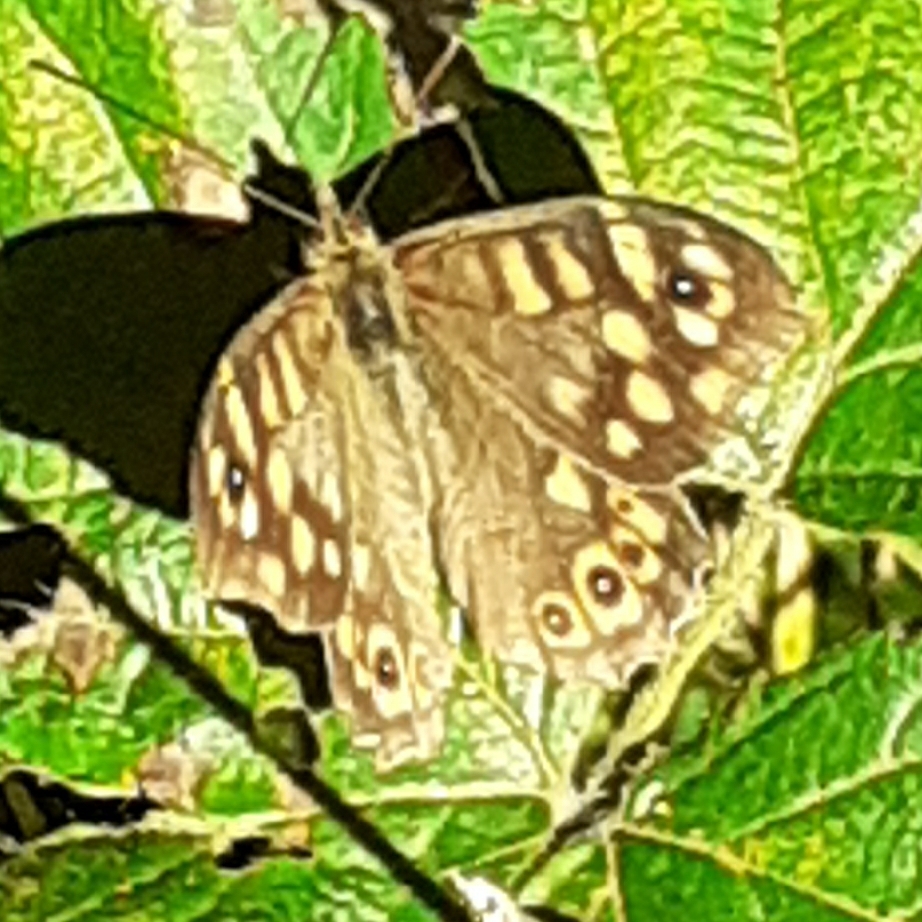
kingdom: Animalia
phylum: Arthropoda
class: Insecta
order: Lepidoptera
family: Nymphalidae
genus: Pararge
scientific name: Pararge aegeria
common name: Speckled wood
